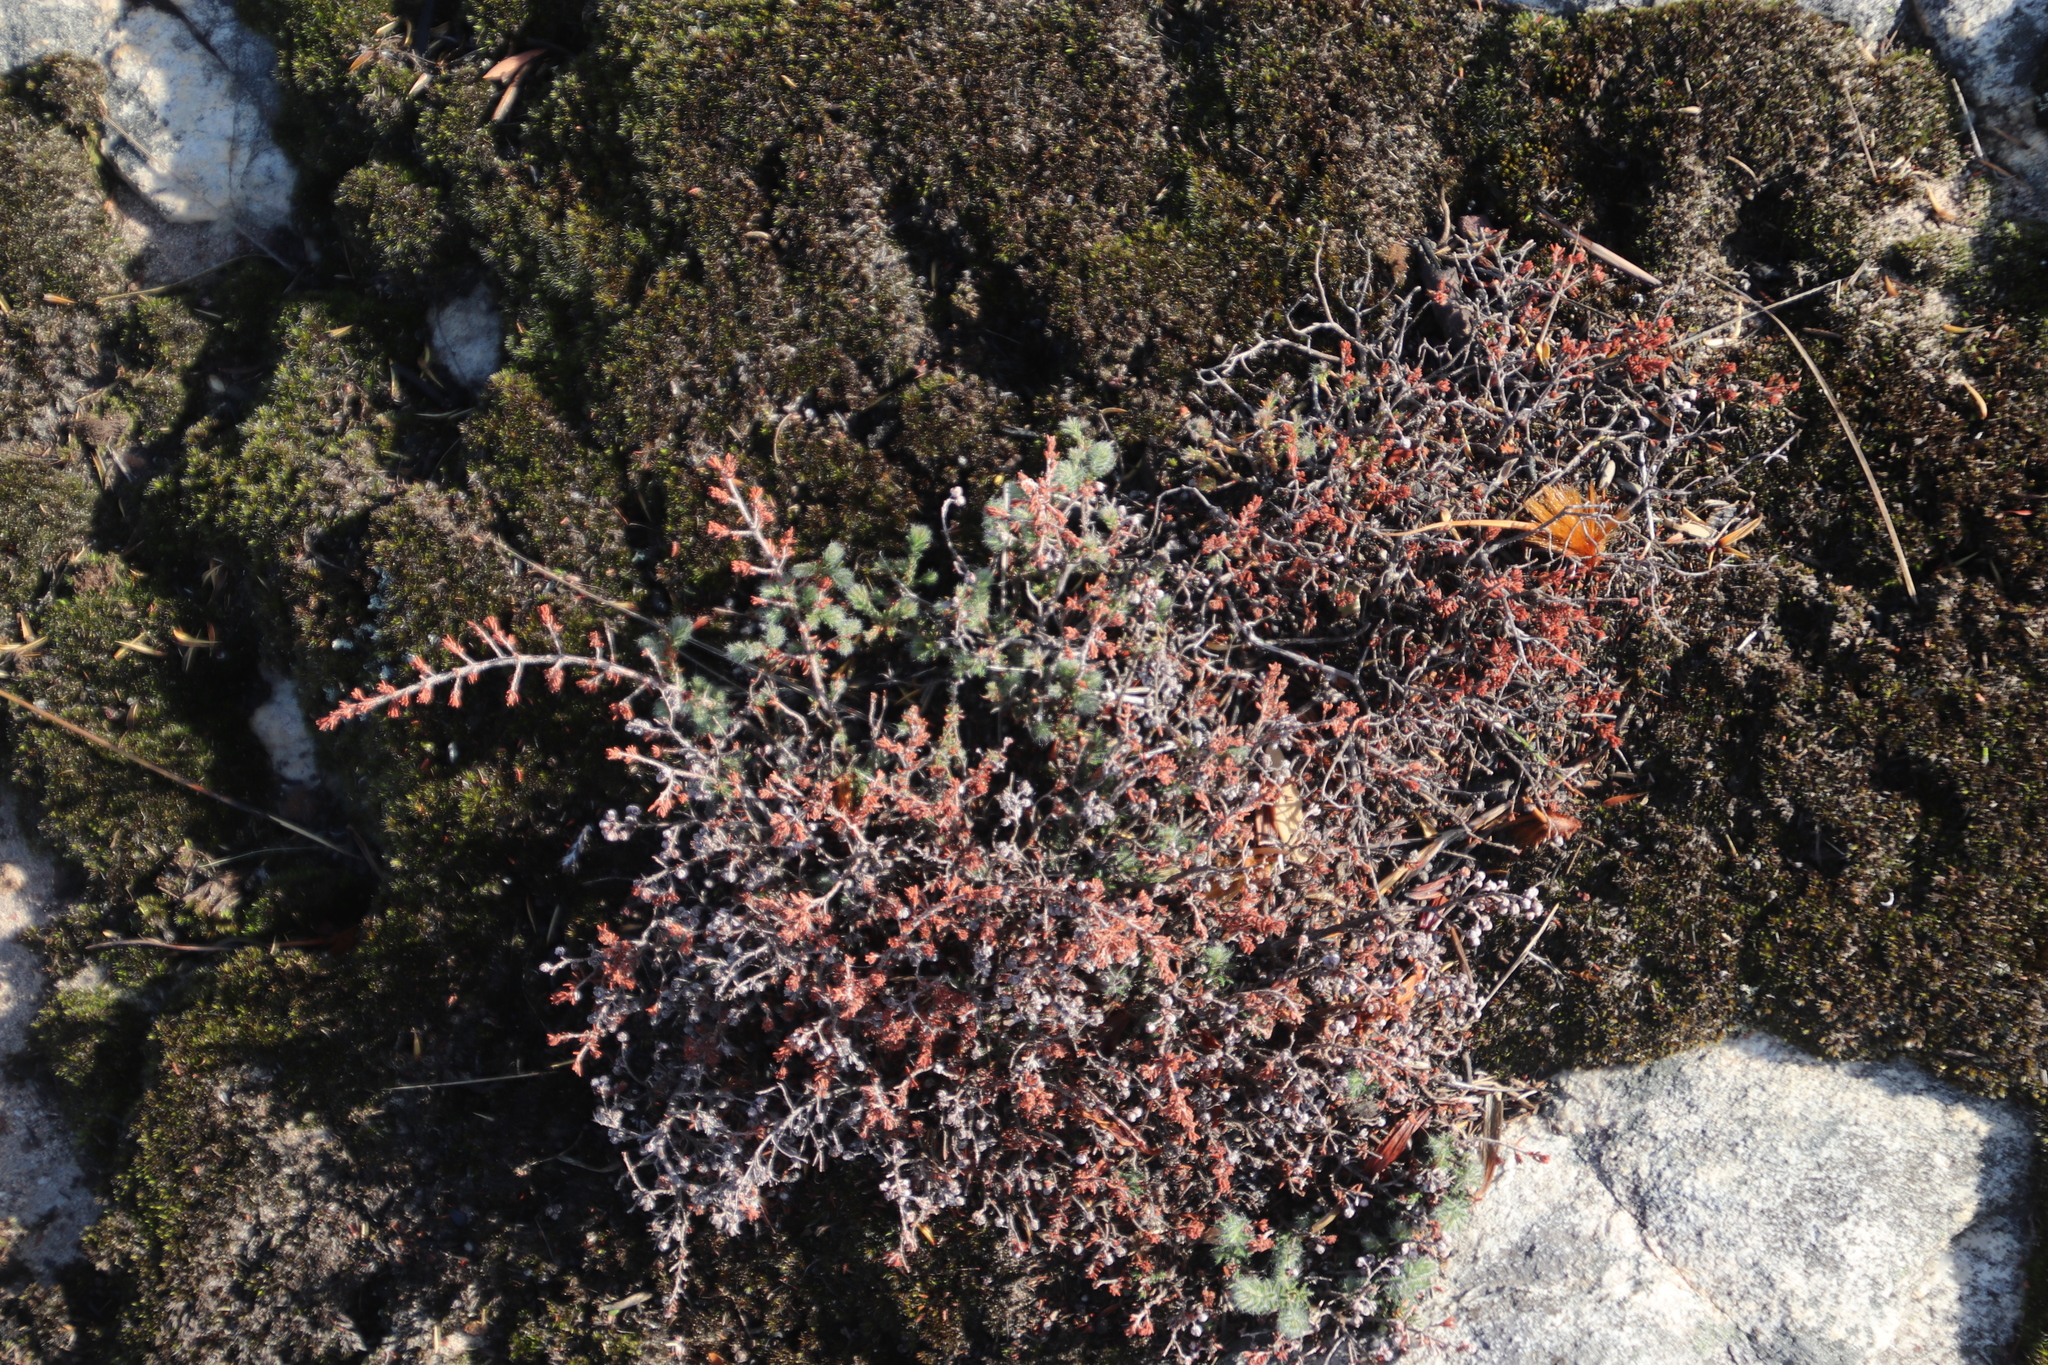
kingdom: Plantae
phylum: Tracheophyta
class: Magnoliopsida
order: Ericales
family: Ericaceae
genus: Erica
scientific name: Erica totta
